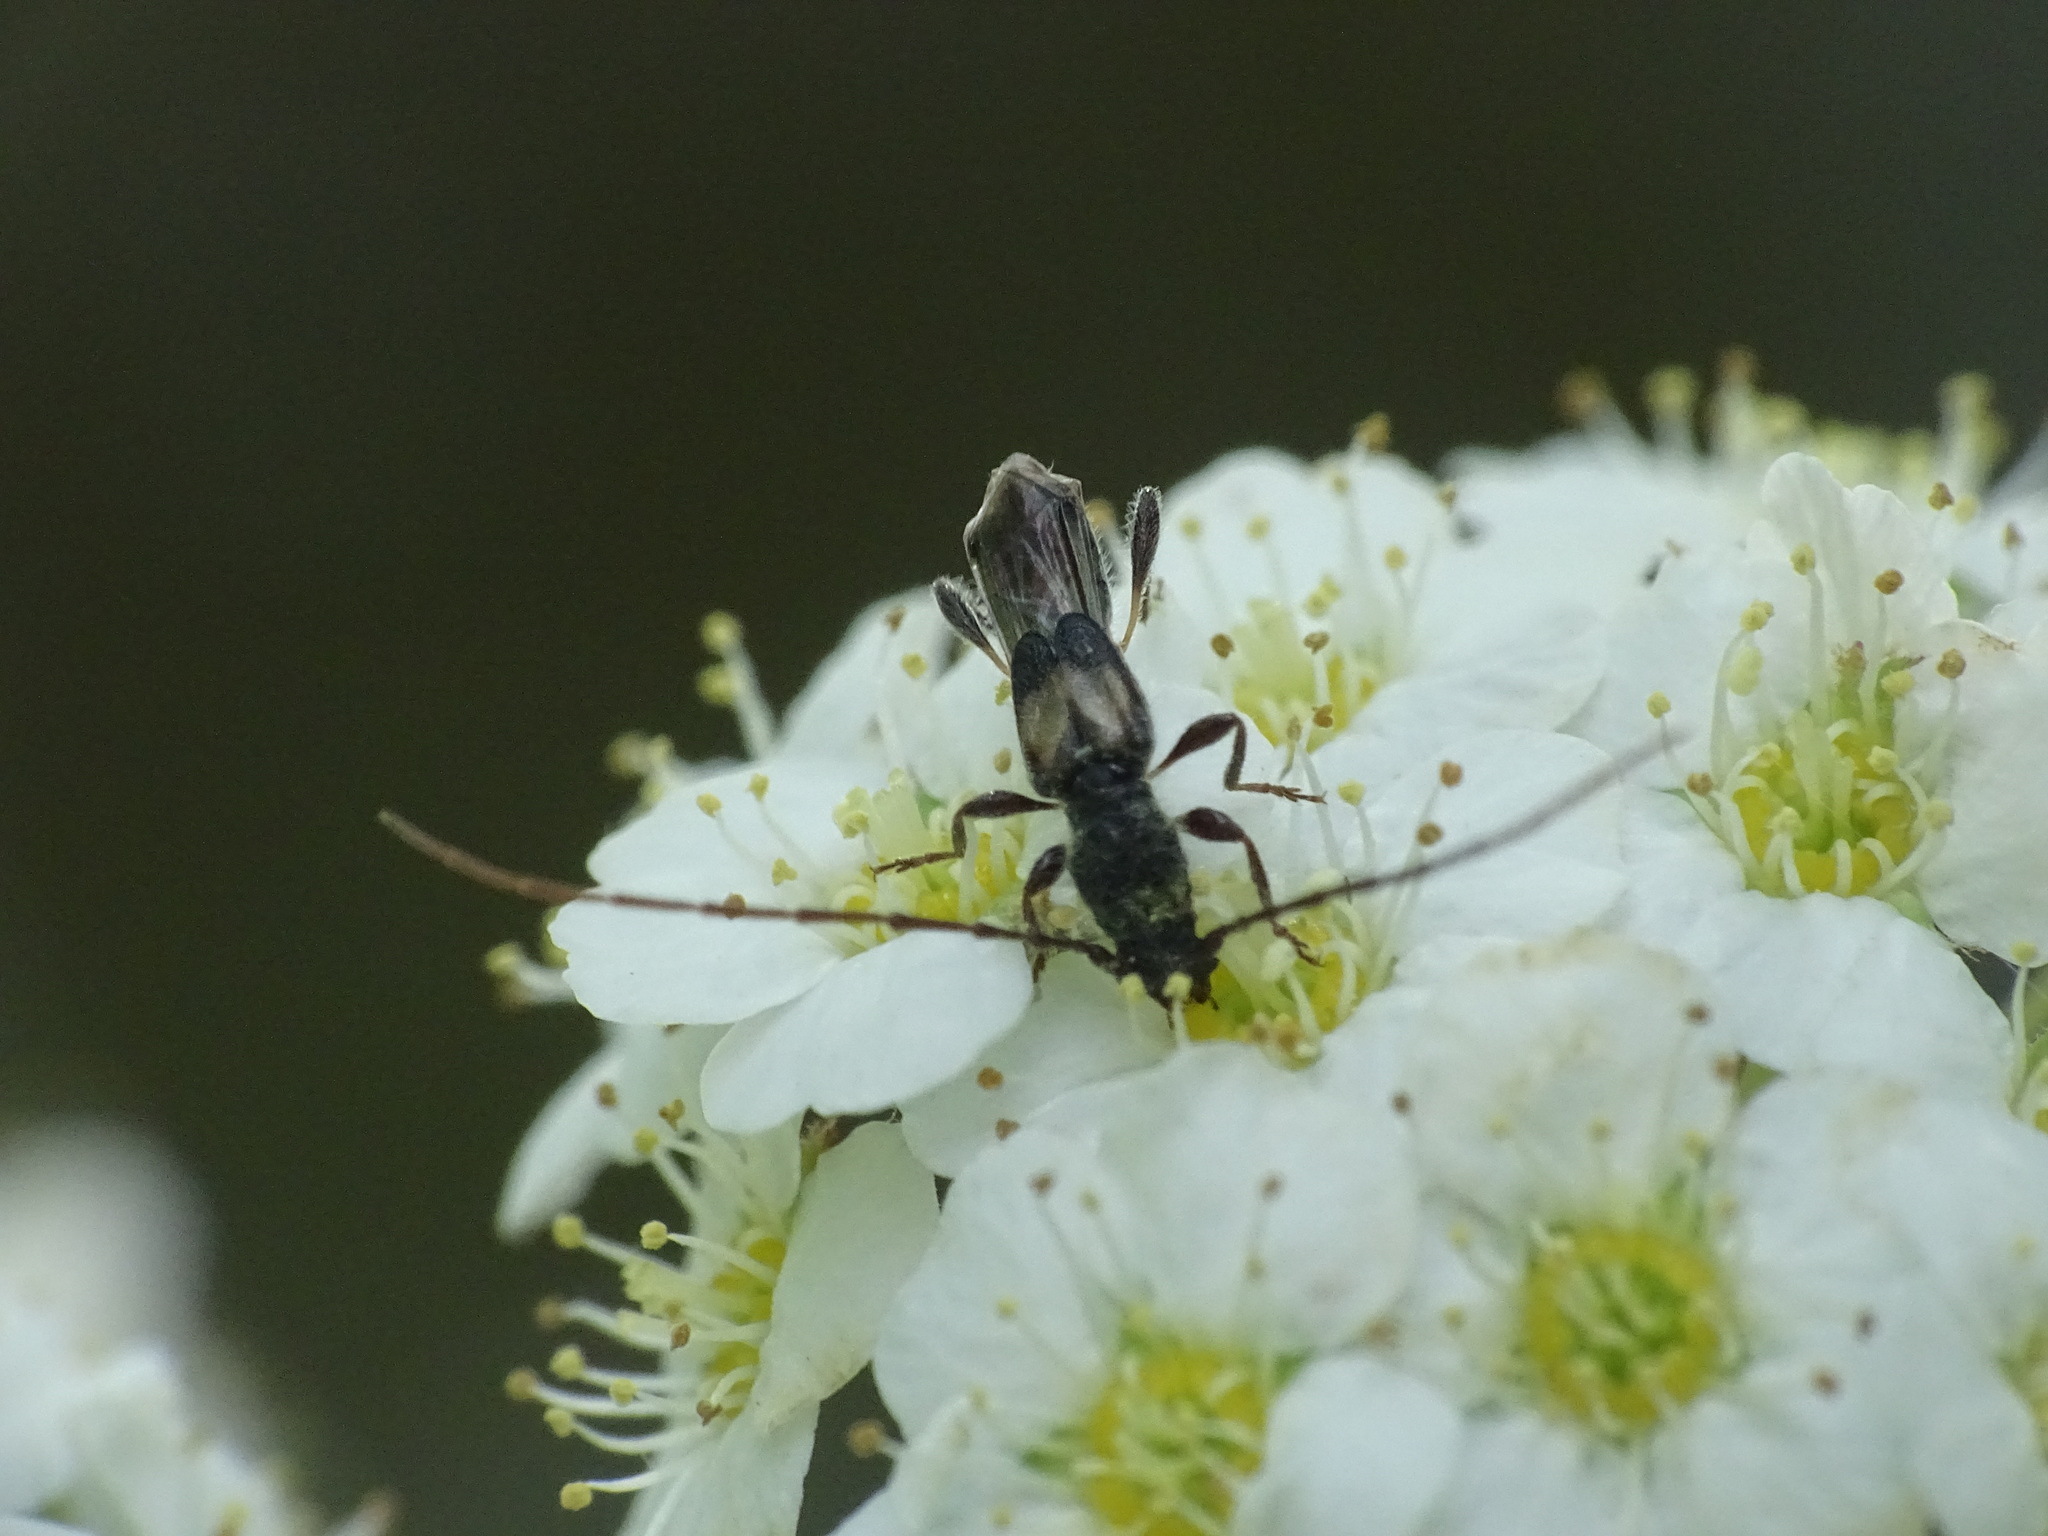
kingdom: Animalia
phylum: Arthropoda
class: Insecta
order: Coleoptera
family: Cerambycidae
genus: Molorchus
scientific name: Molorchus bimaculatus
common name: Bimaculate longhorn beetle
